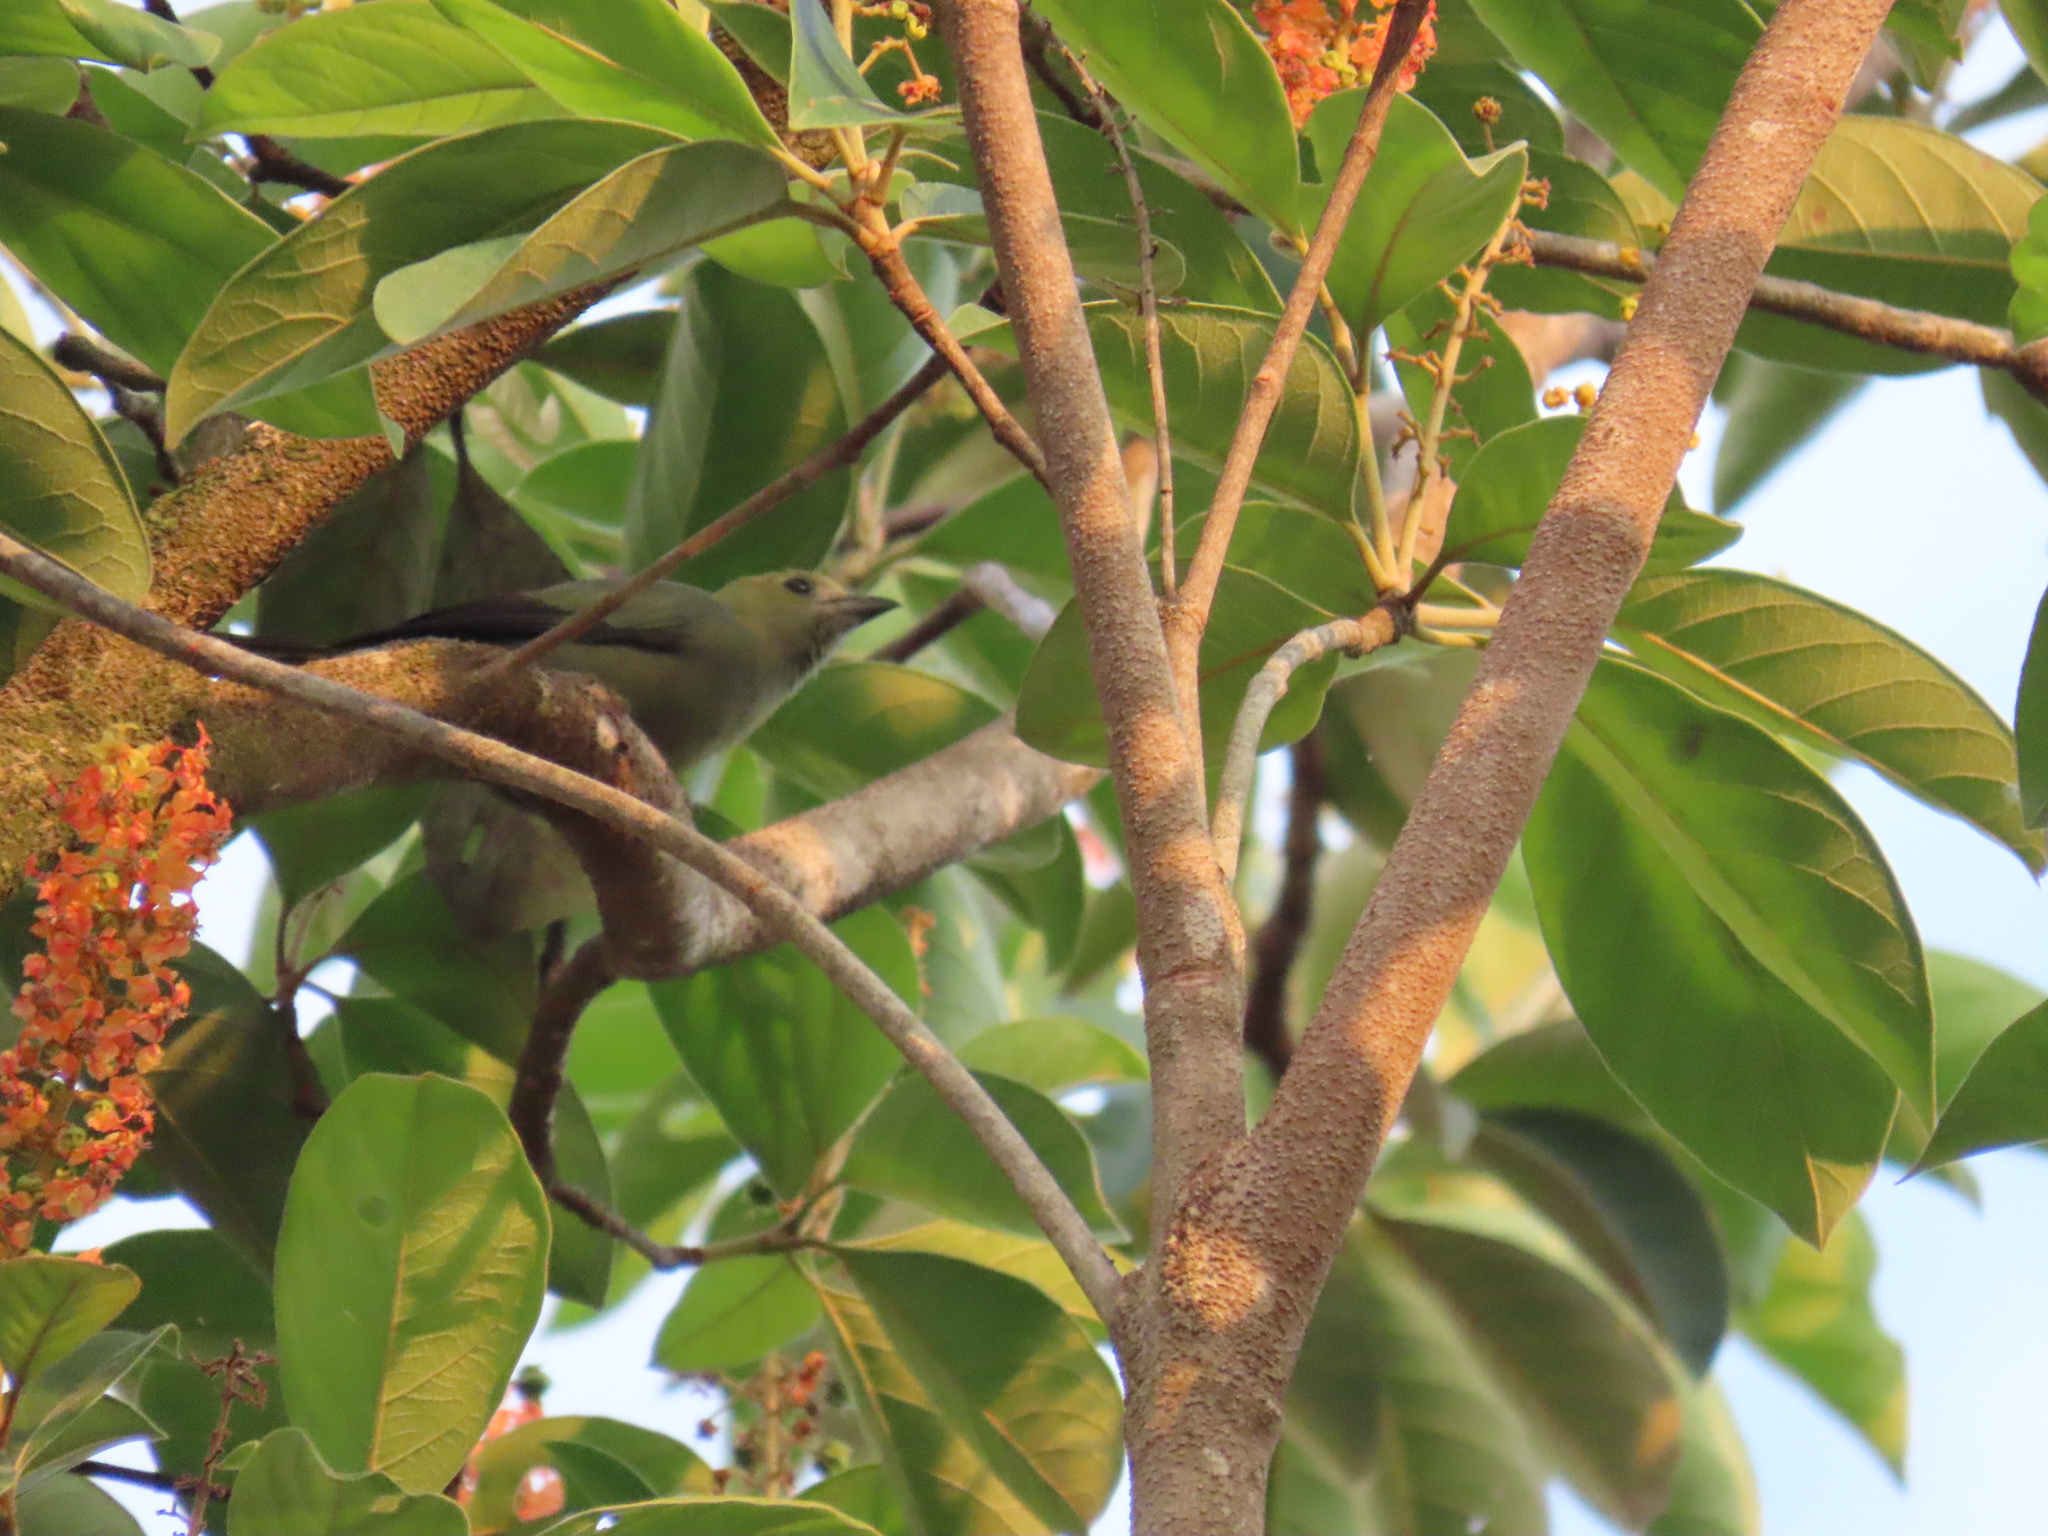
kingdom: Animalia
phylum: Chordata
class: Aves
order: Passeriformes
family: Thraupidae
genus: Thraupis
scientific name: Thraupis palmarum
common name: Palm tanager
